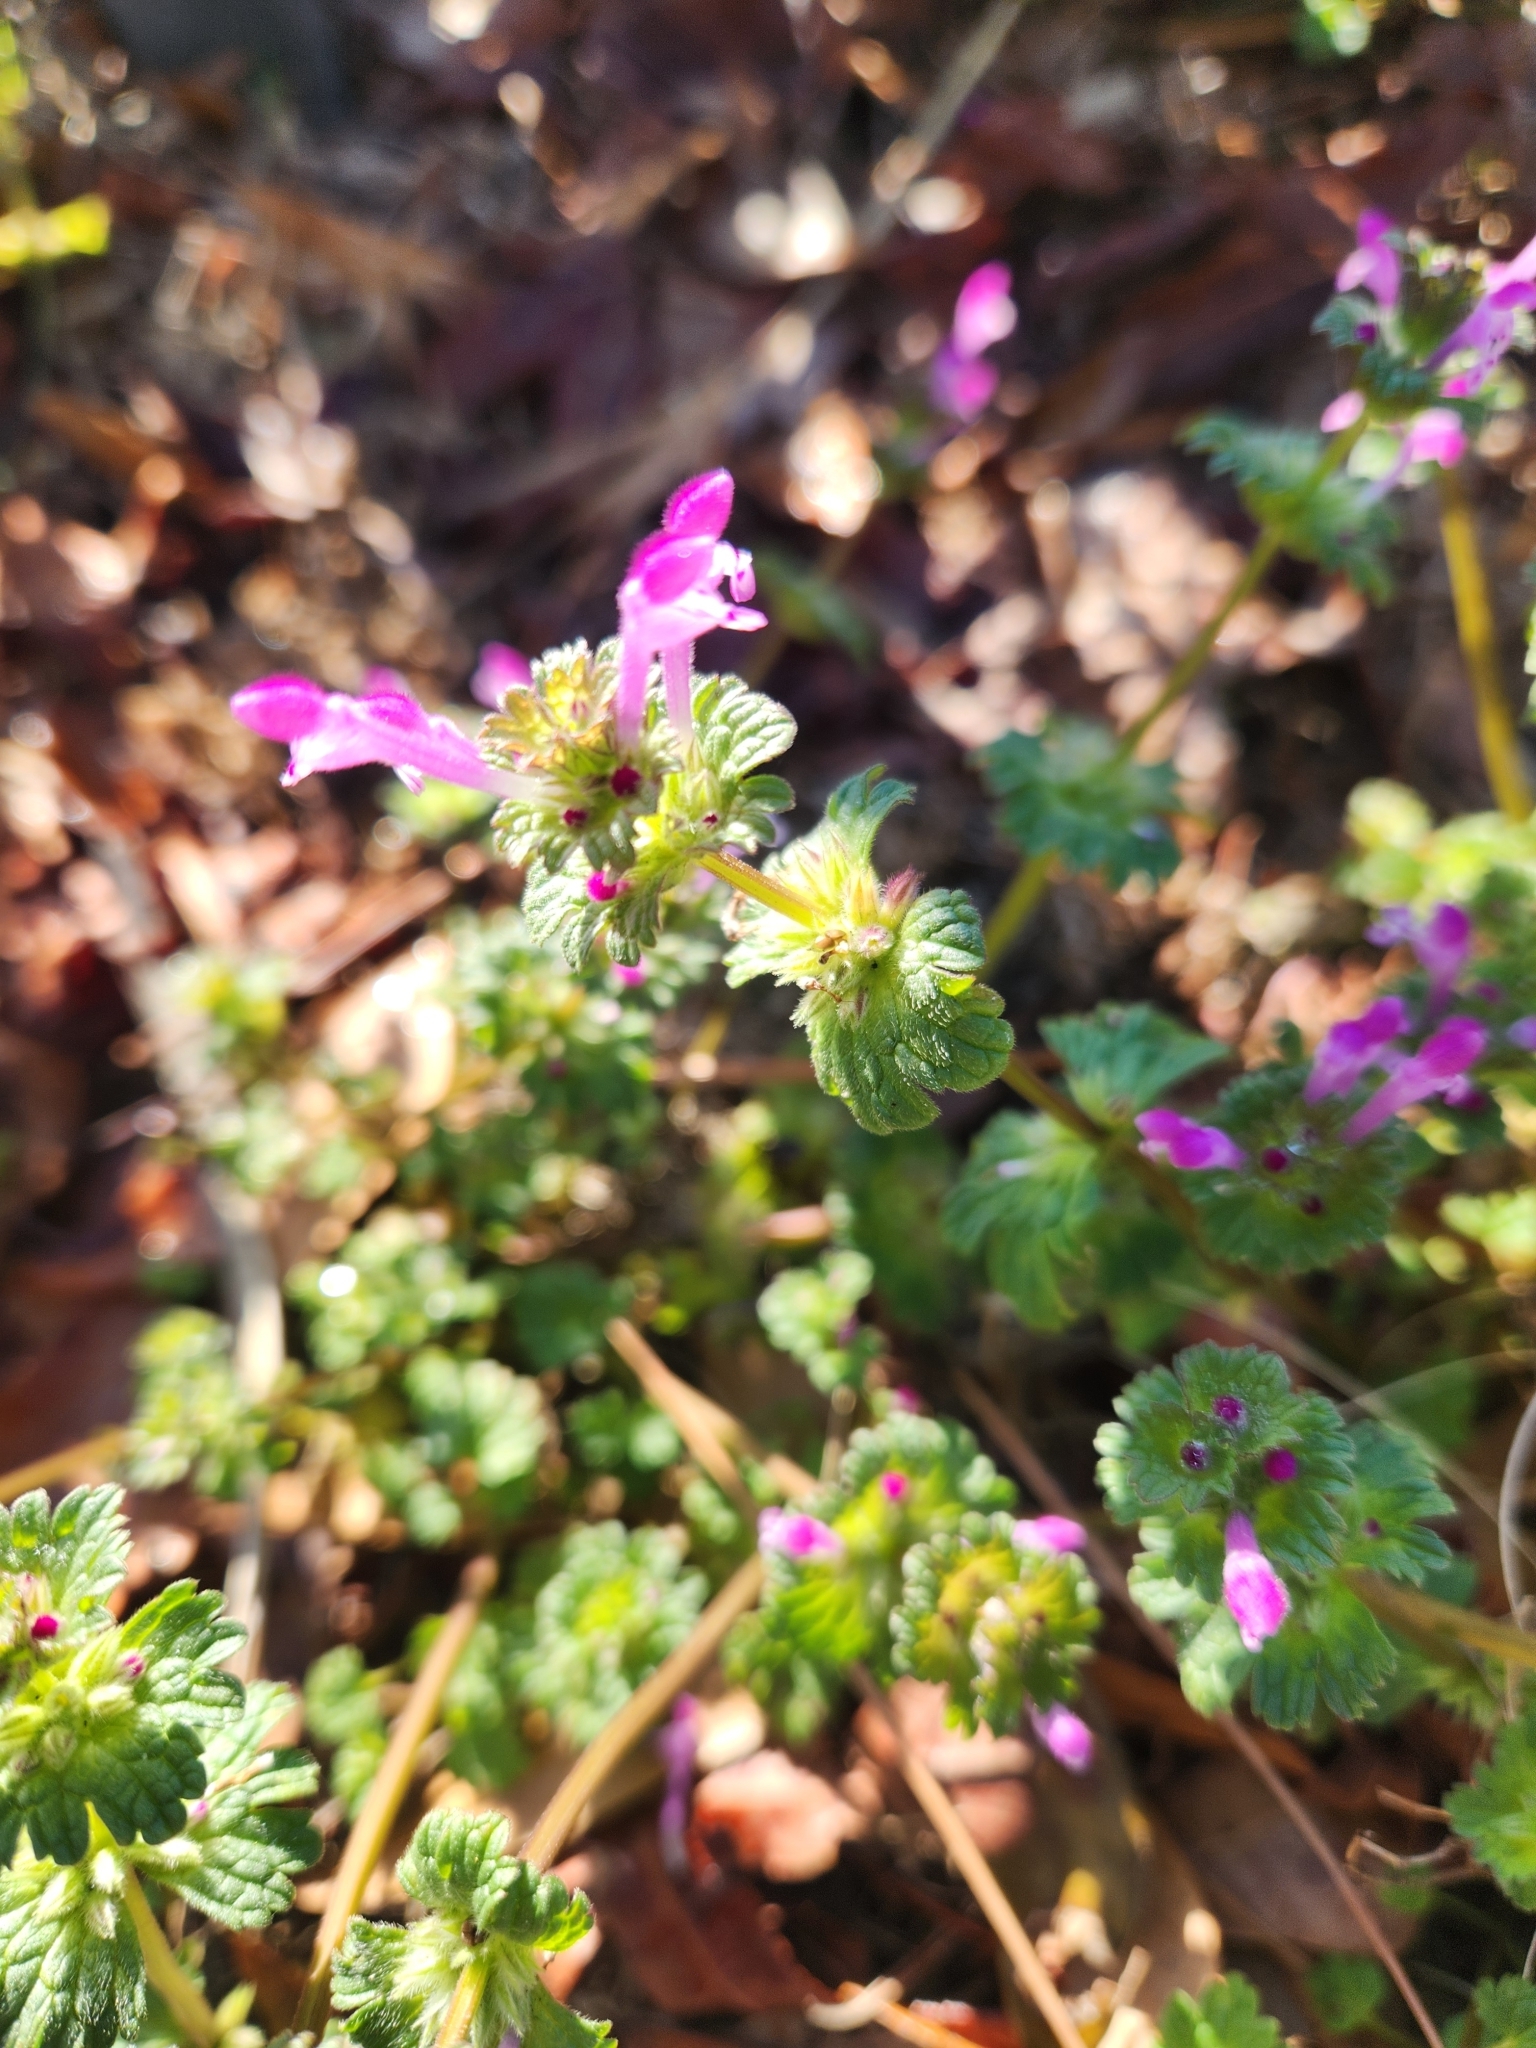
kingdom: Plantae
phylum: Tracheophyta
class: Magnoliopsida
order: Lamiales
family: Lamiaceae
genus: Lamium
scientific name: Lamium amplexicaule
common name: Henbit dead-nettle
